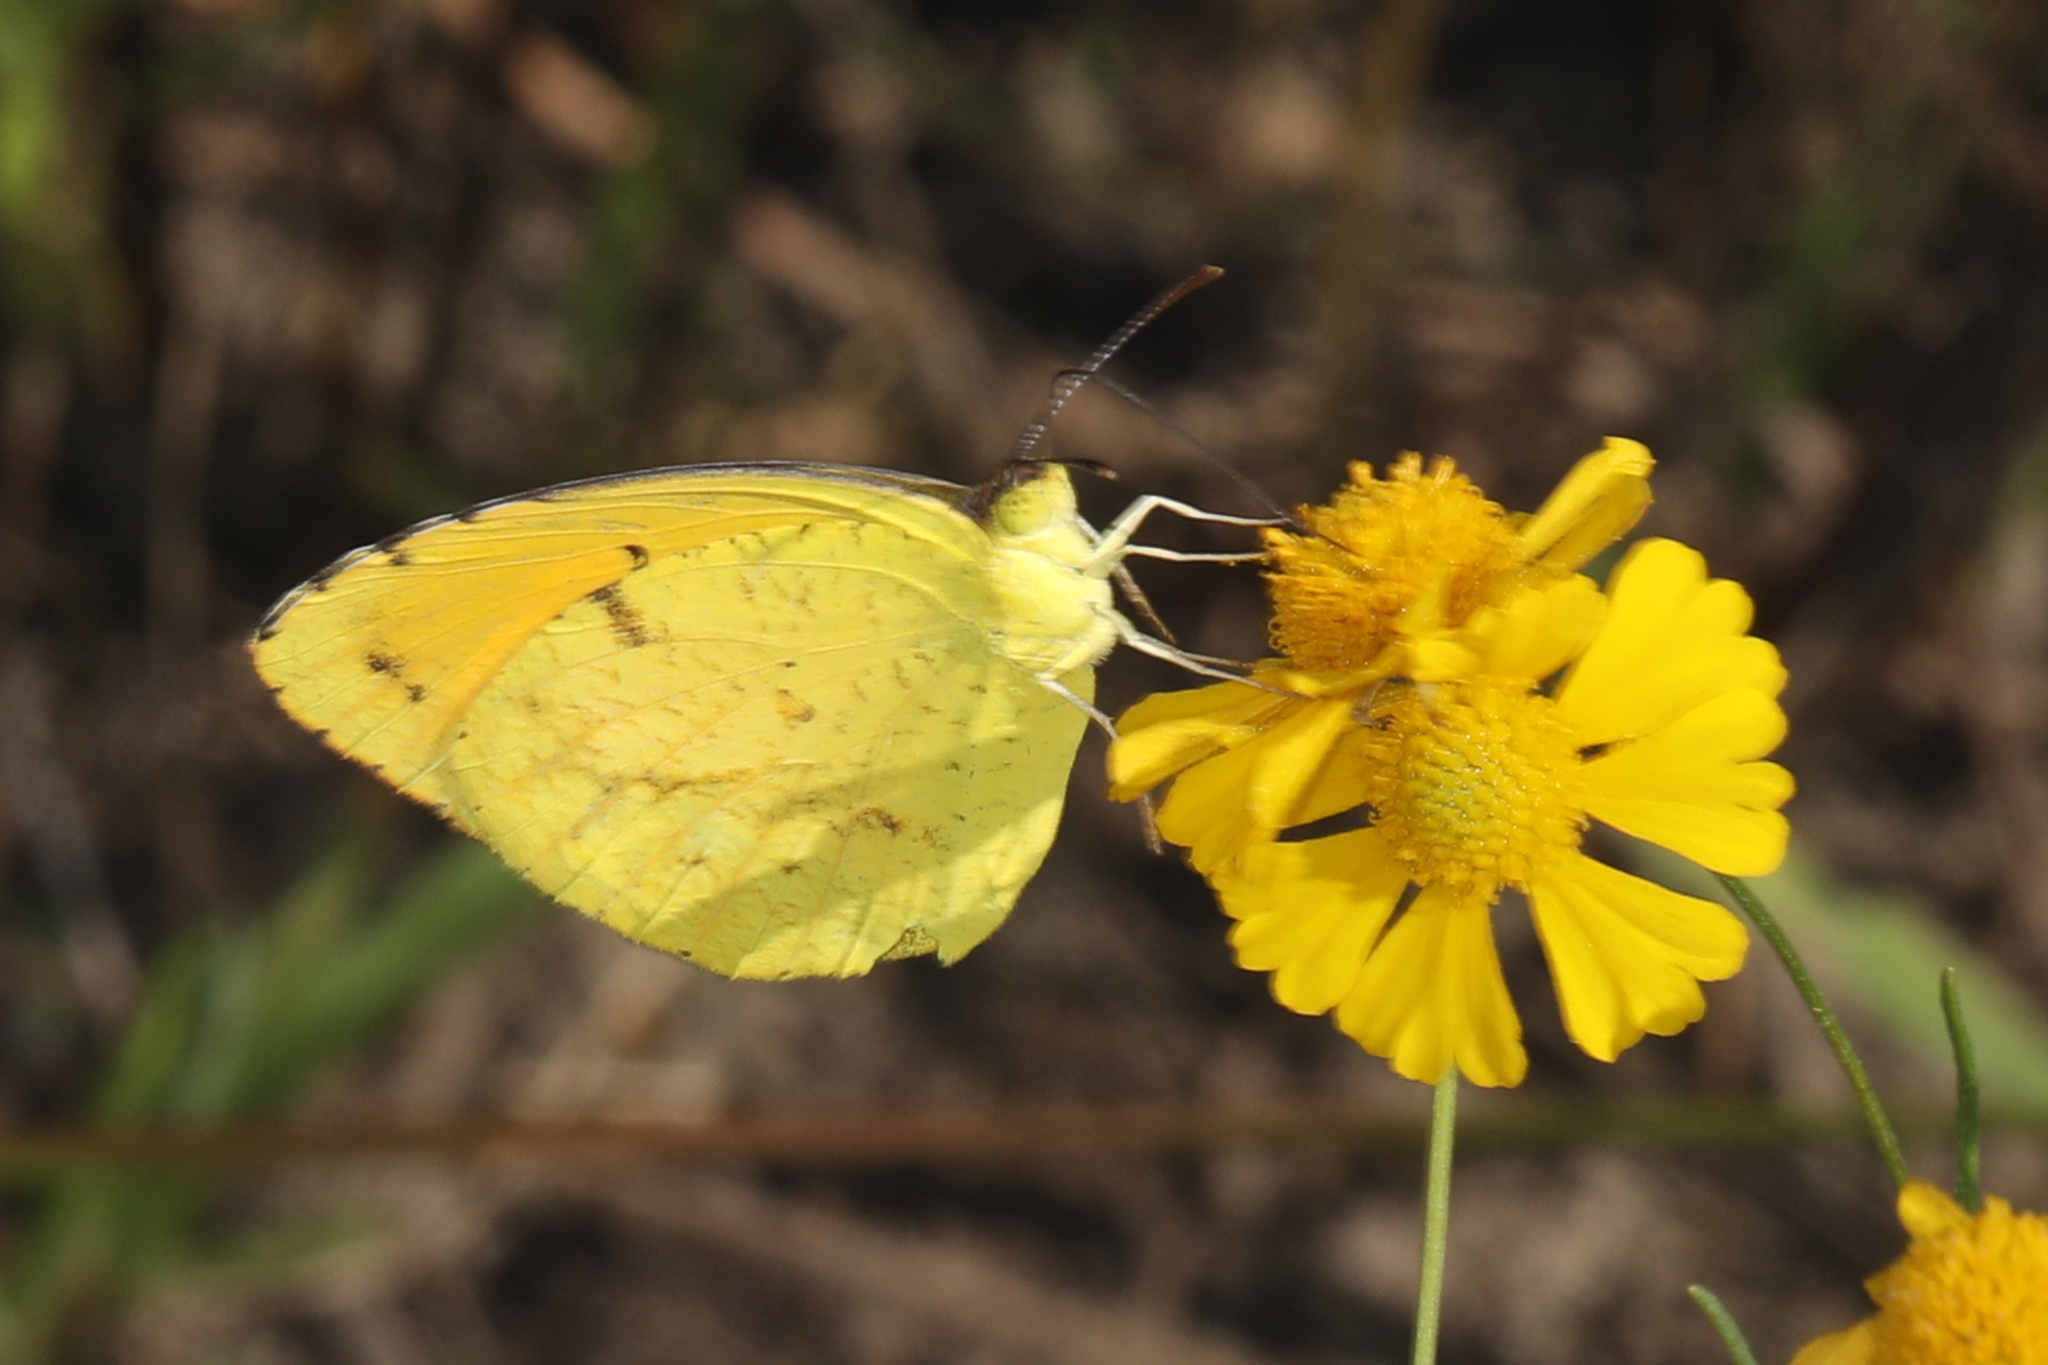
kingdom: Animalia
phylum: Arthropoda
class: Insecta
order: Lepidoptera
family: Pieridae
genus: Abaeis
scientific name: Abaeis nicippe
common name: Sleepy orange
